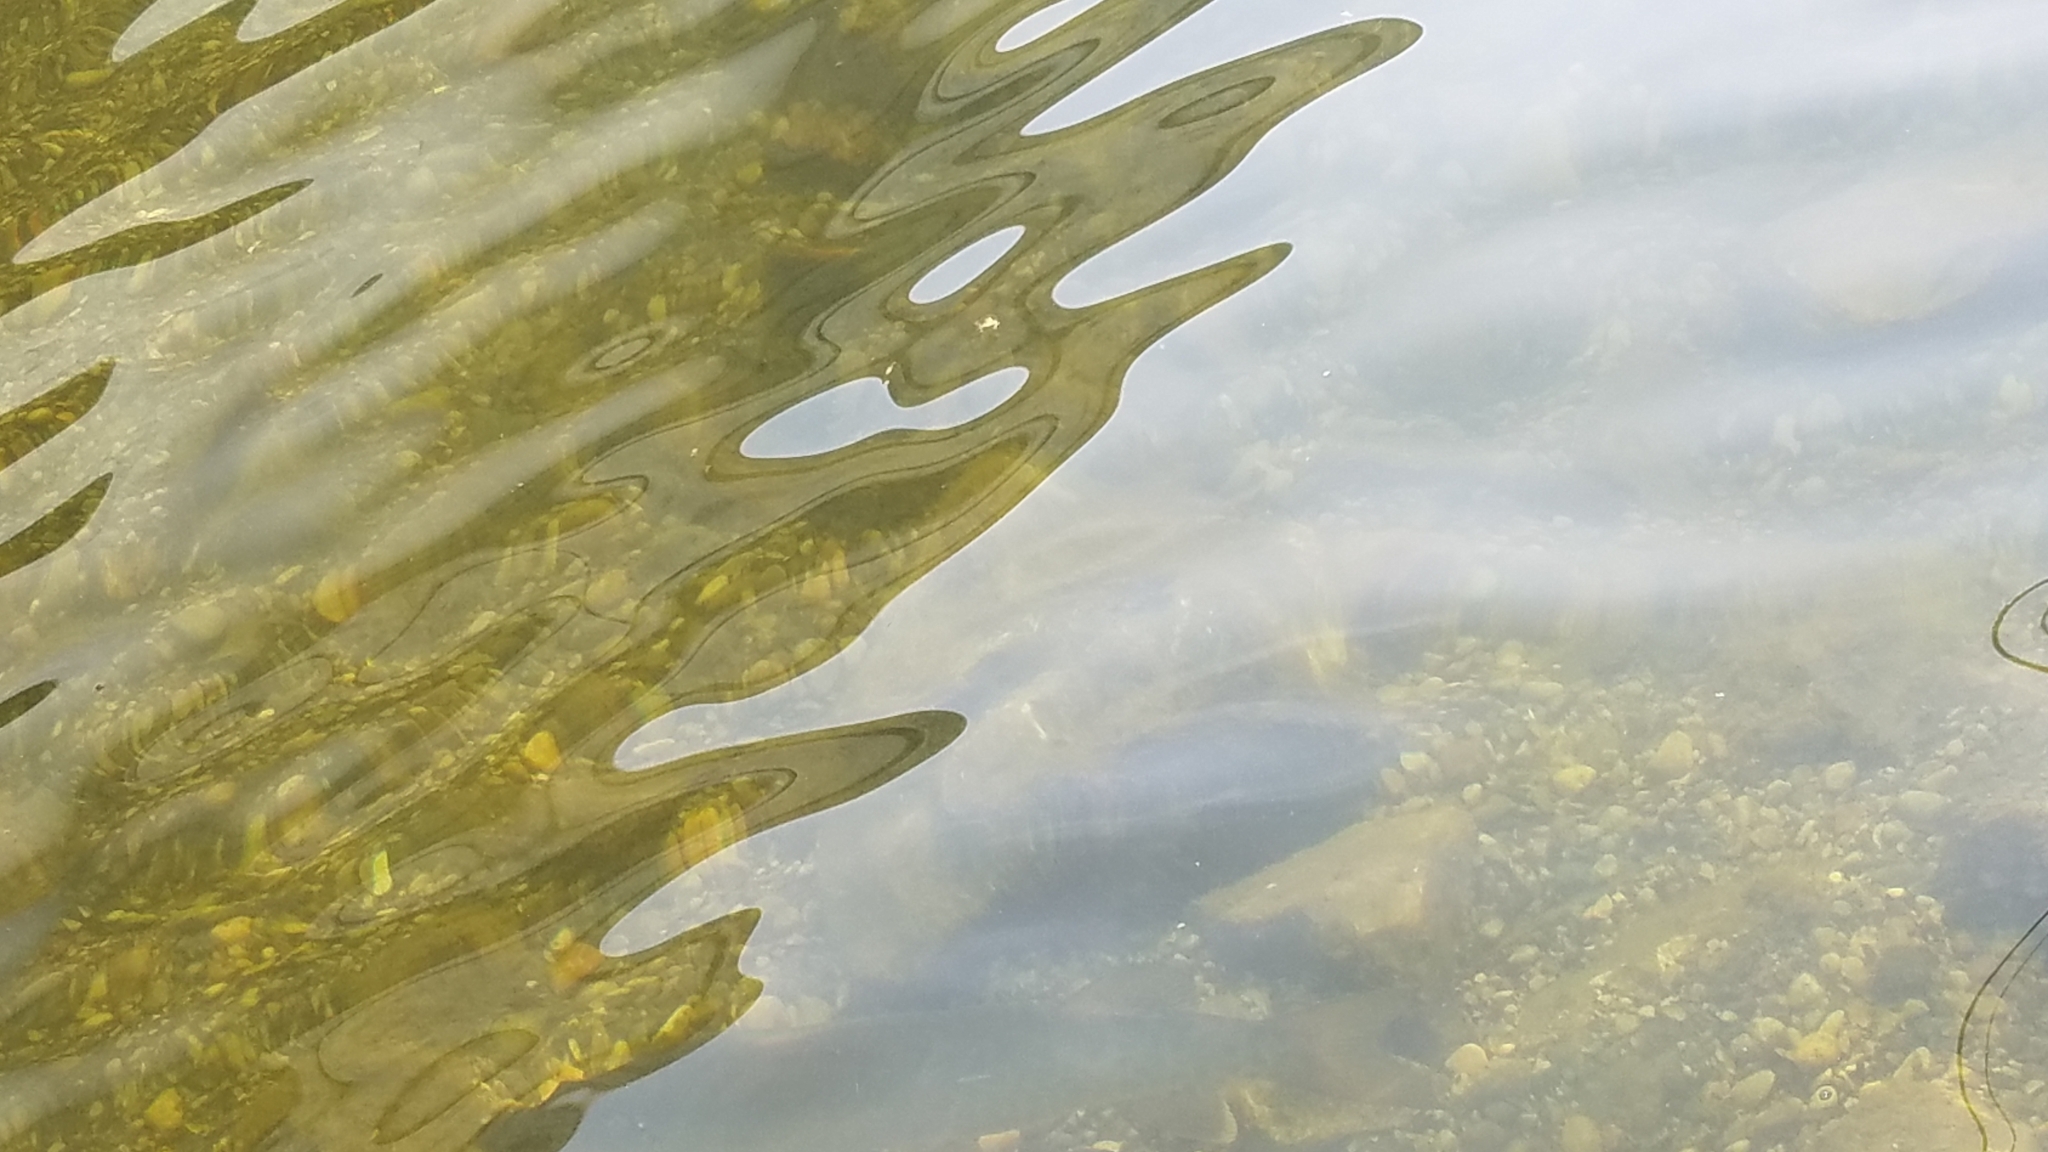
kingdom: Animalia
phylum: Chordata
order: Esociformes
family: Esocidae
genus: Esox
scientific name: Esox masquinongy
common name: Muskellunge
